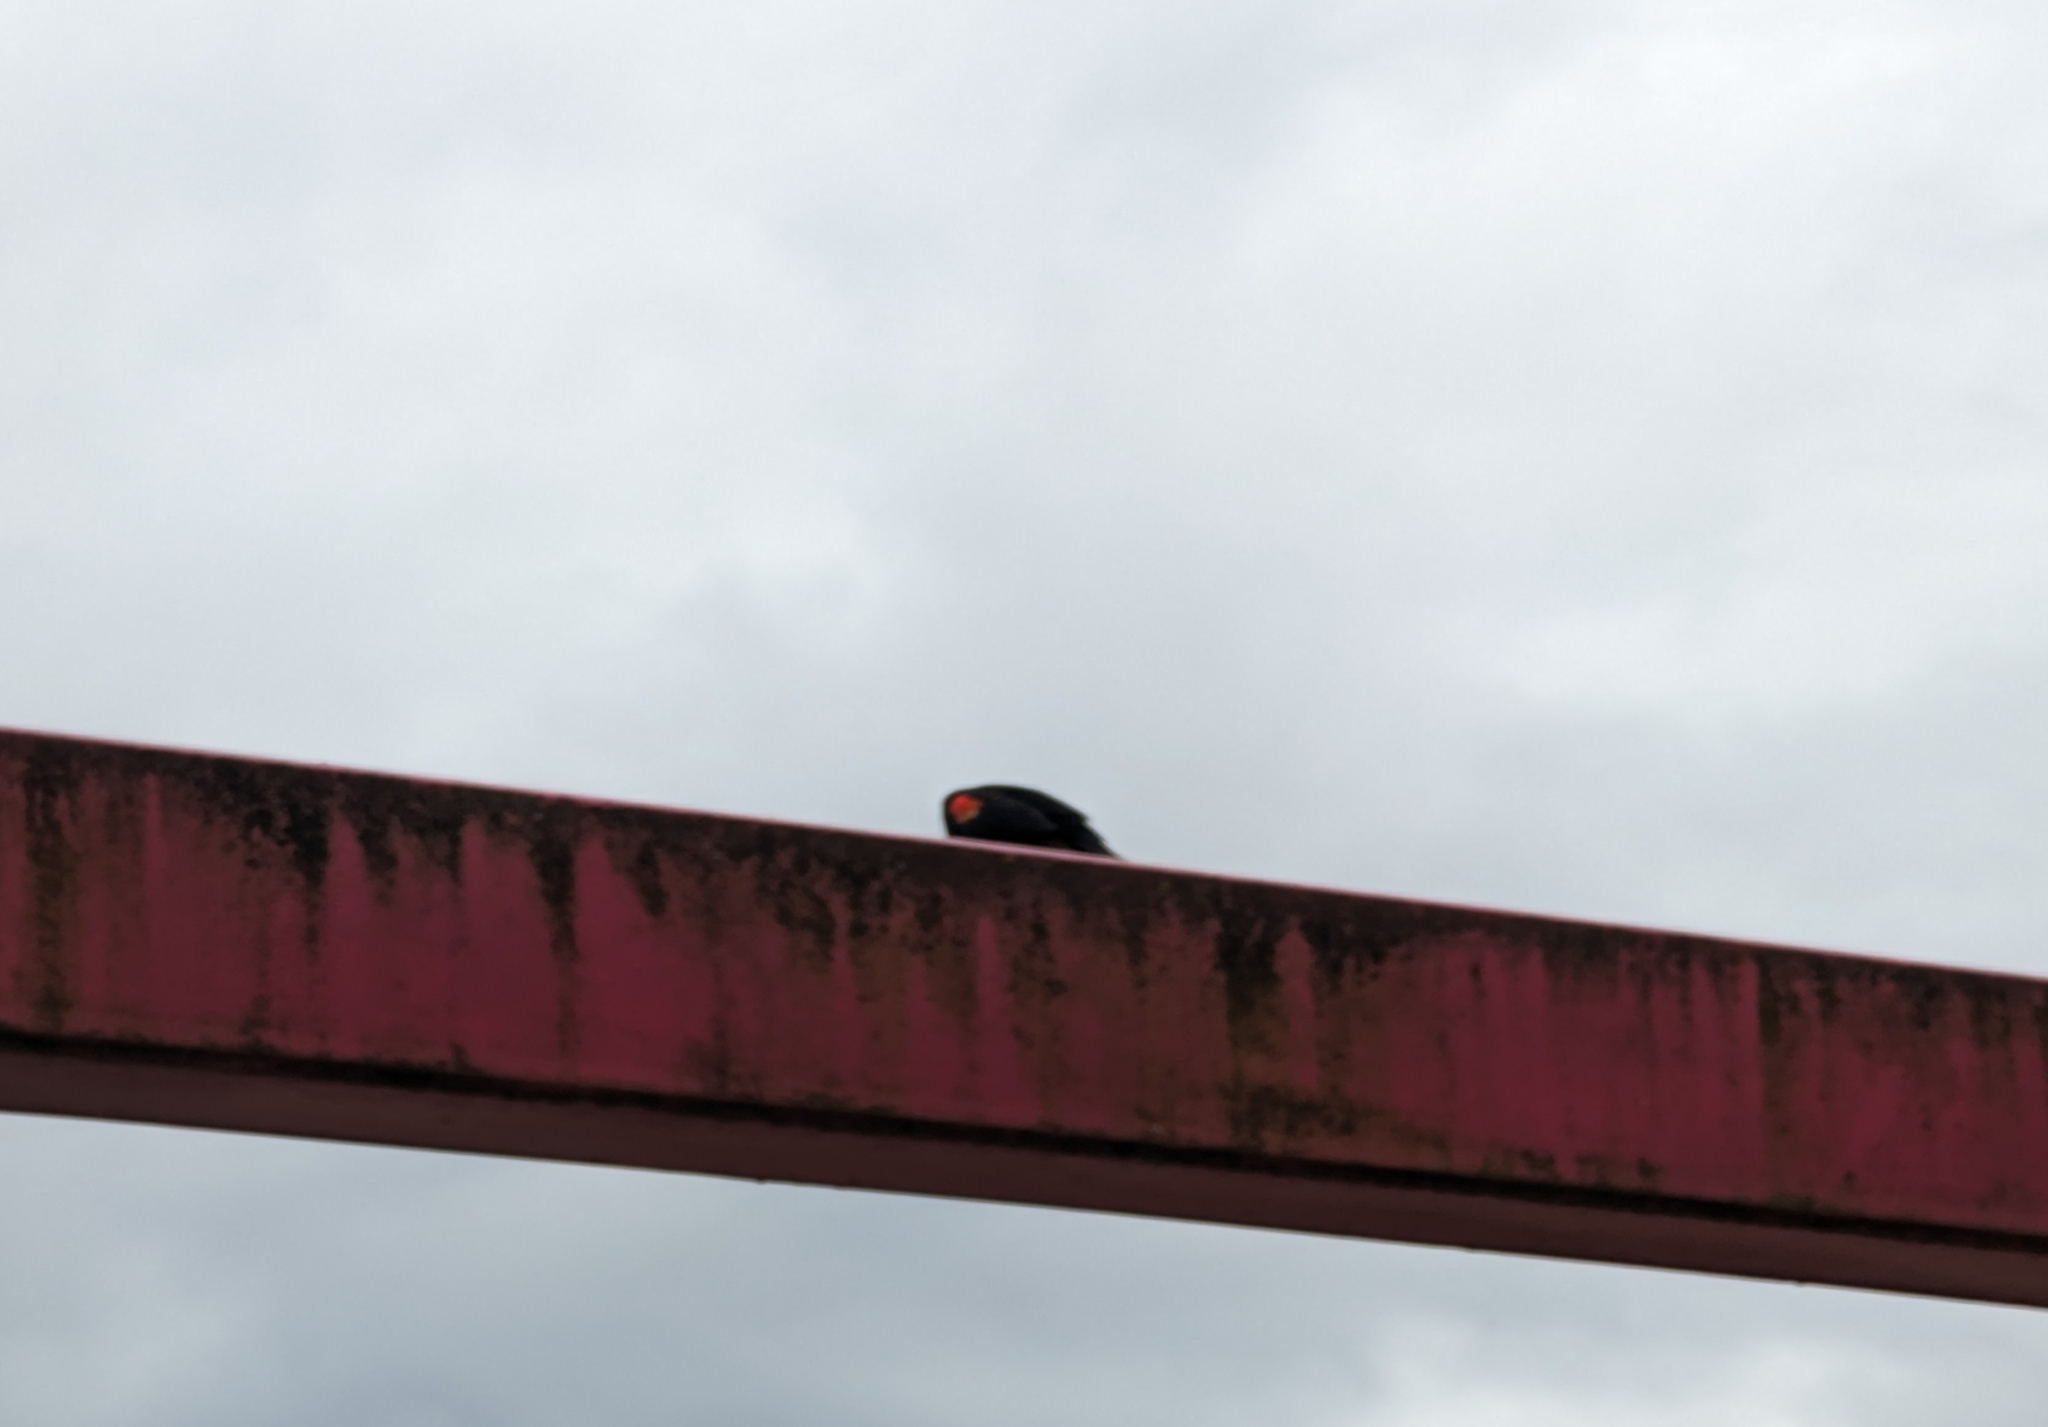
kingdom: Animalia
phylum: Chordata
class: Aves
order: Passeriformes
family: Icteridae
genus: Agelaius
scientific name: Agelaius phoeniceus
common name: Red-winged blackbird
